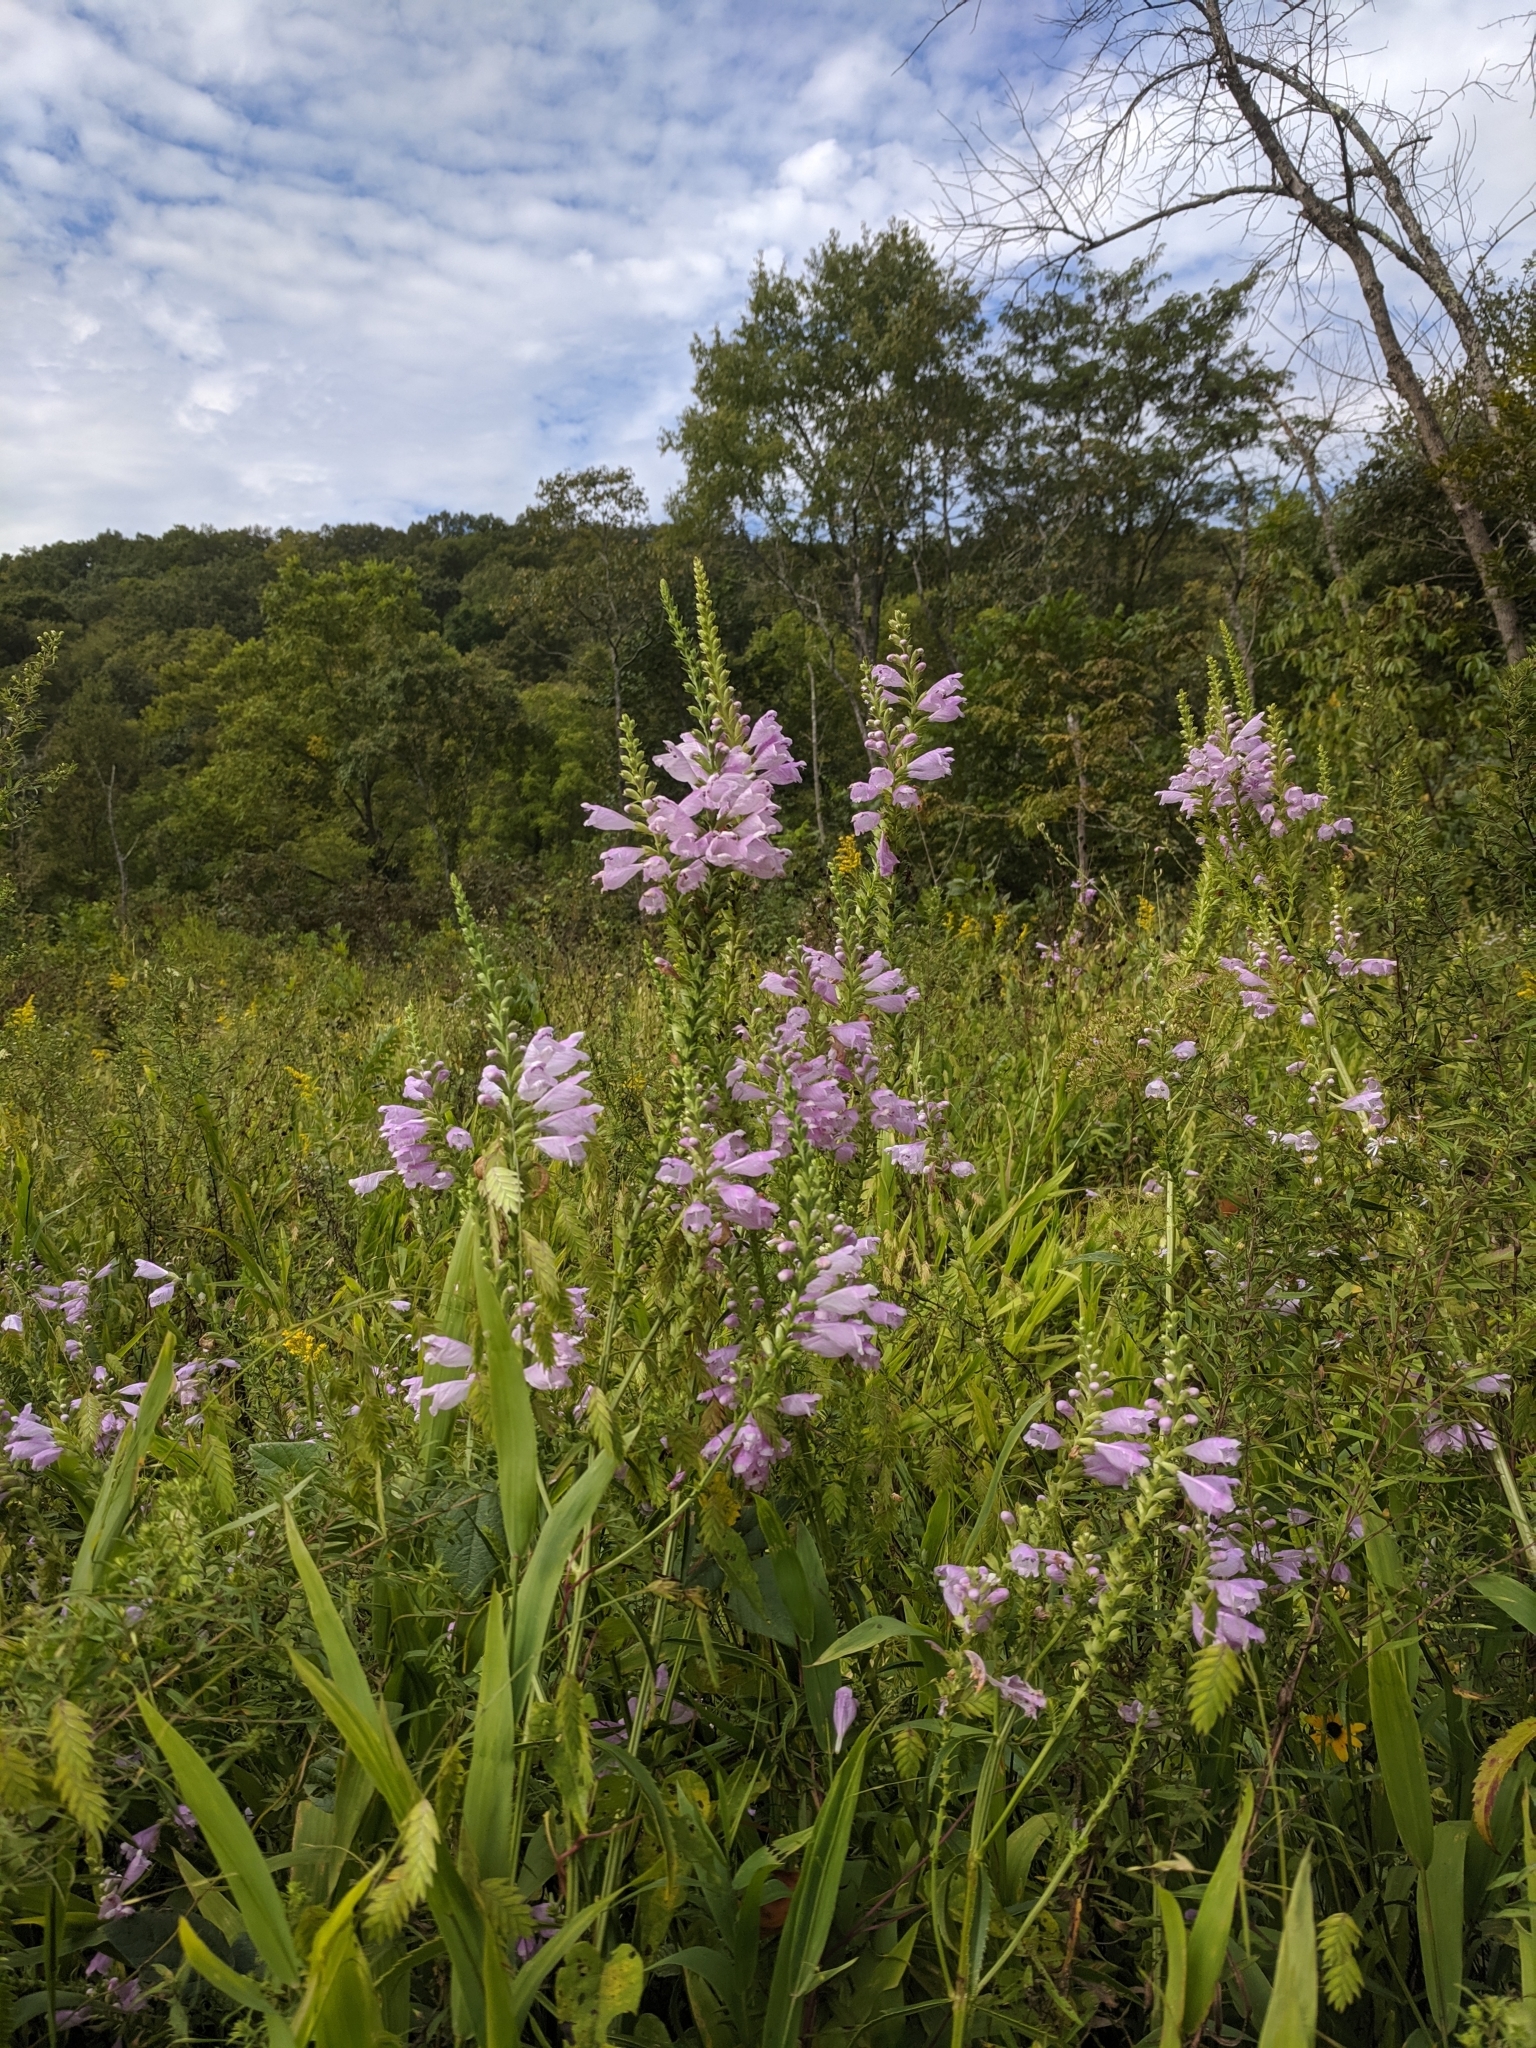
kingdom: Plantae
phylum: Tracheophyta
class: Magnoliopsida
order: Lamiales
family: Lamiaceae
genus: Physostegia
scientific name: Physostegia virginiana
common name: Obedient-plant
